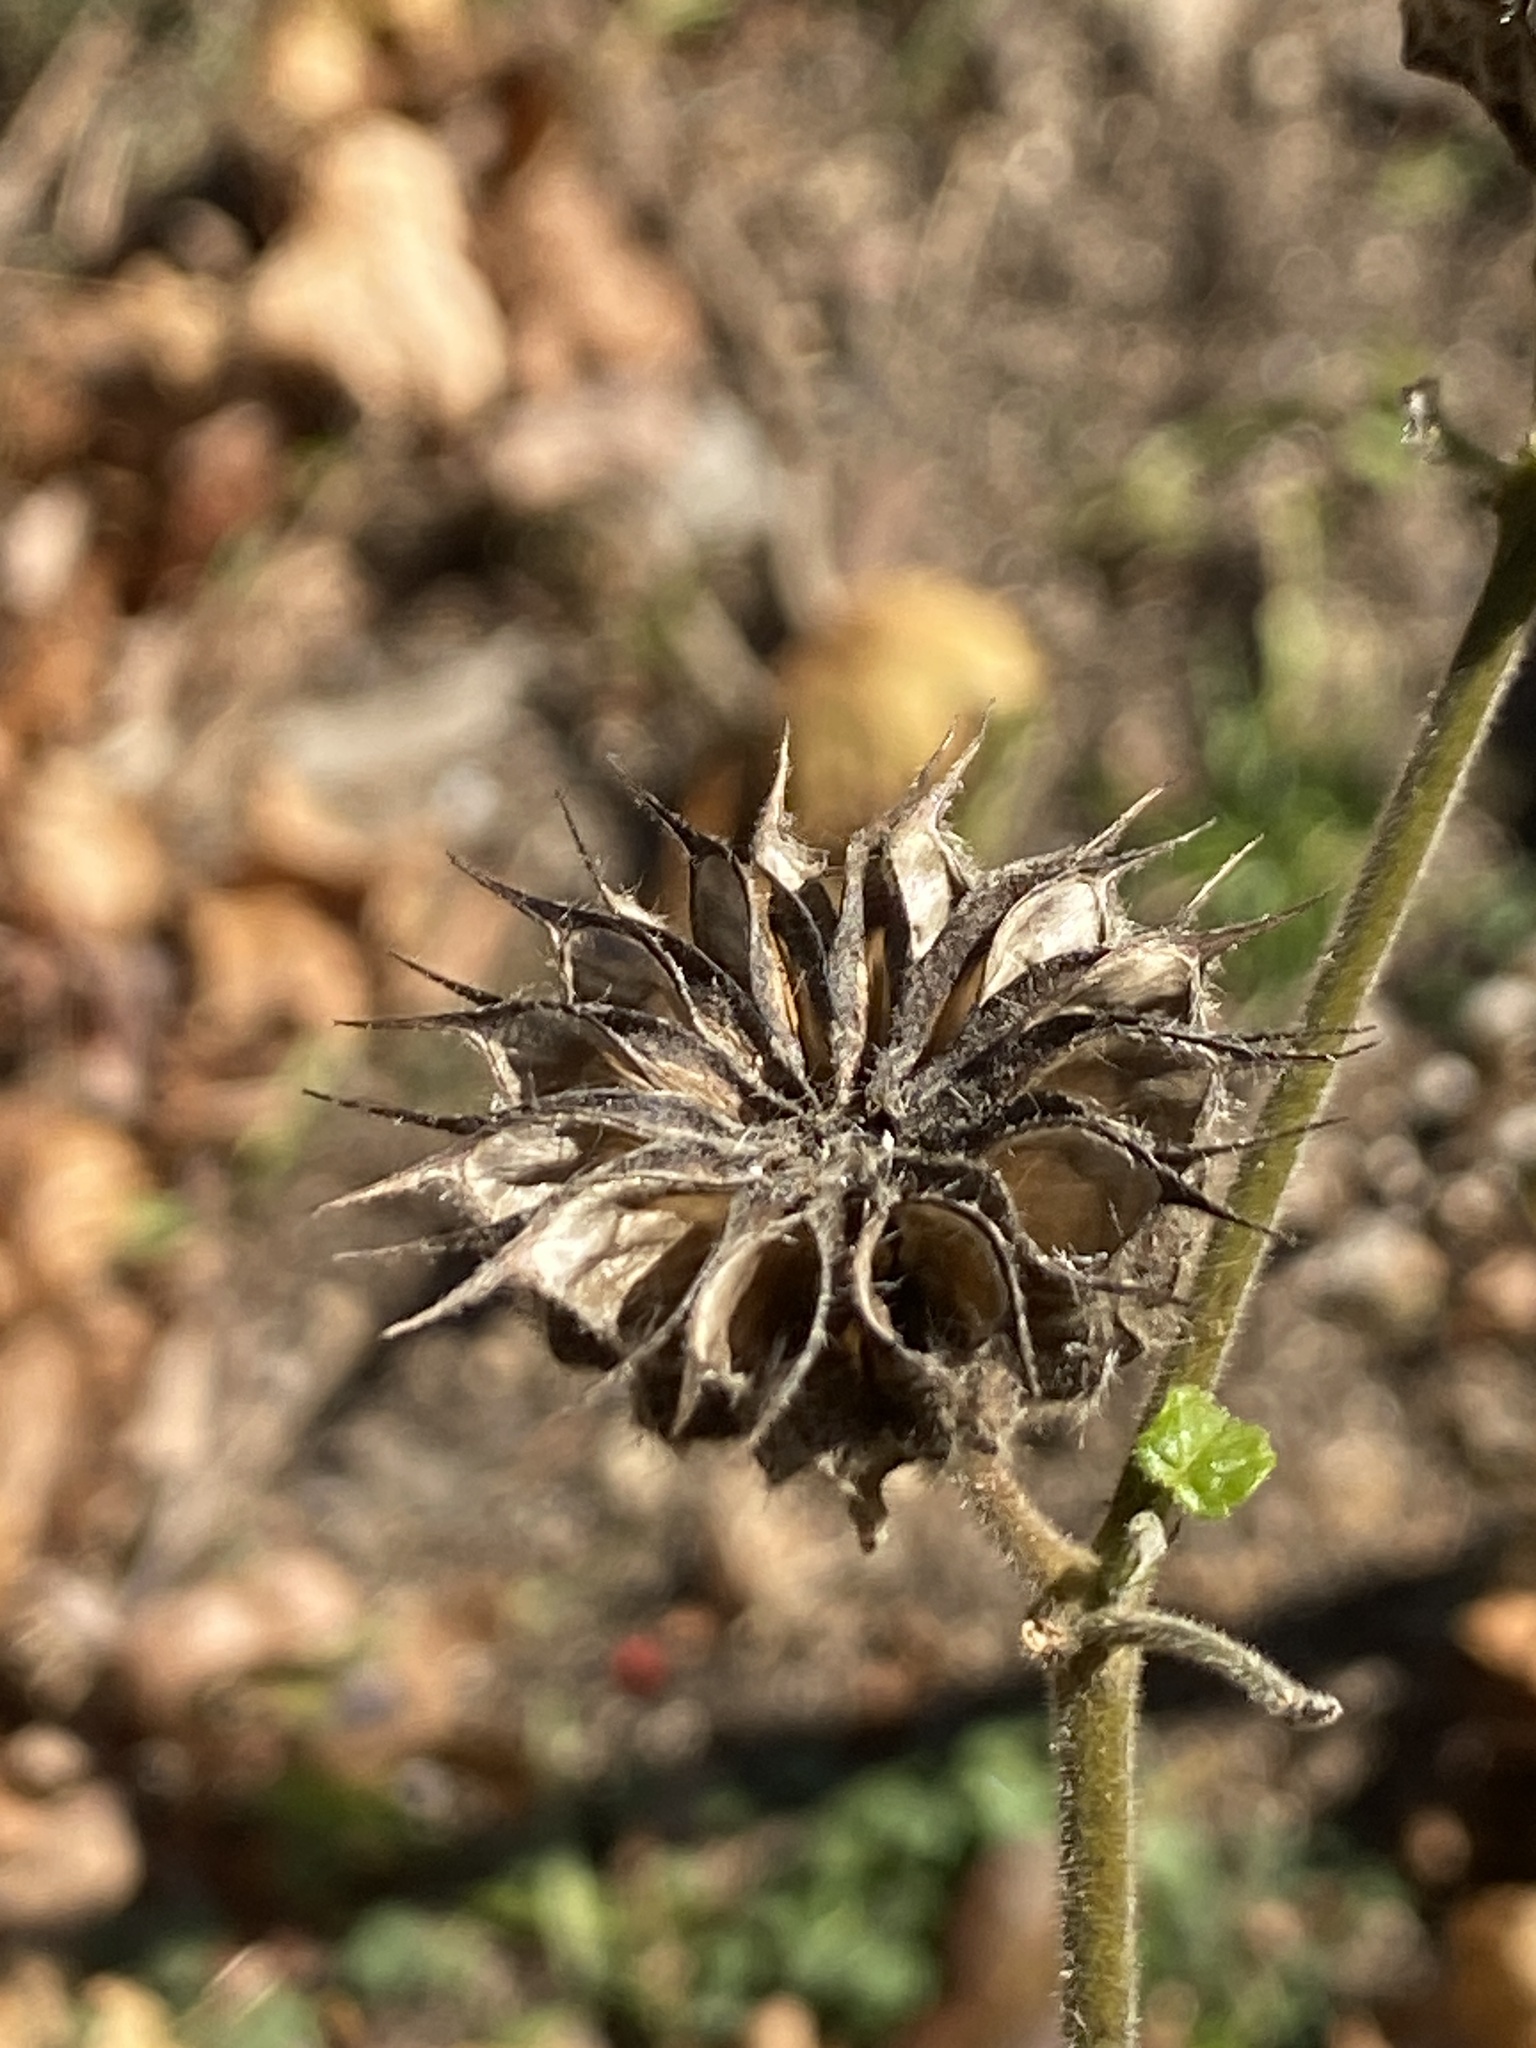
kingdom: Plantae
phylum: Tracheophyta
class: Magnoliopsida
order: Malvales
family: Malvaceae
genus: Abutilon
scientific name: Abutilon theophrasti
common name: Velvetleaf
